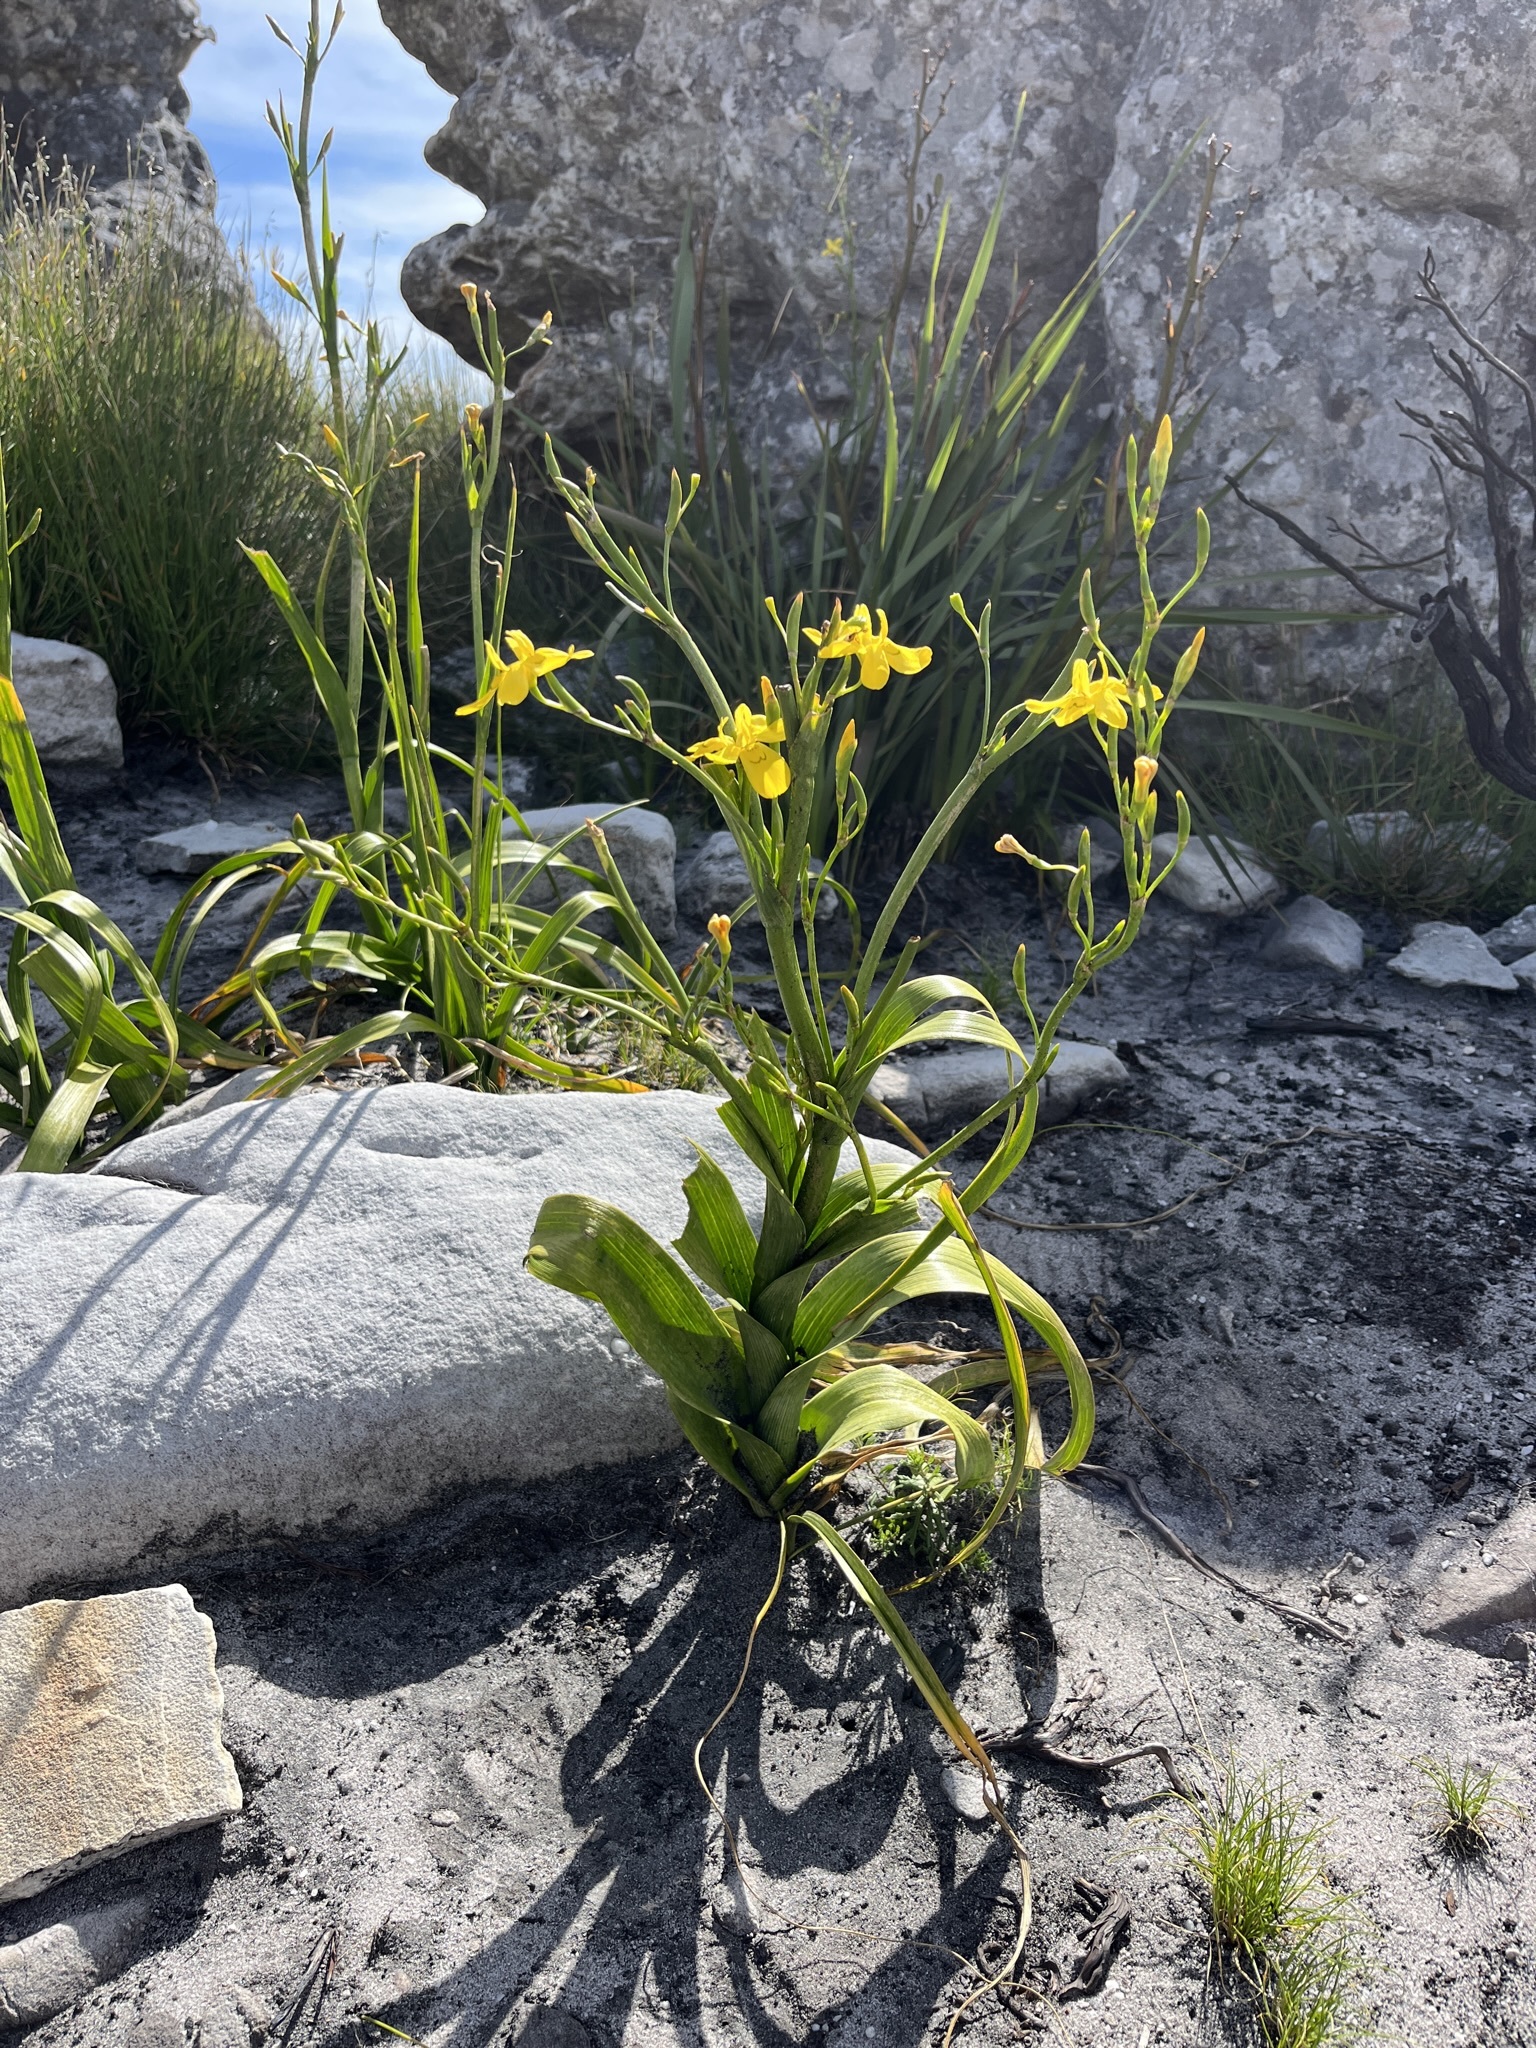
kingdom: Plantae
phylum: Tracheophyta
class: Liliopsida
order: Asparagales
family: Iridaceae
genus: Moraea
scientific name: Moraea ramosissima
